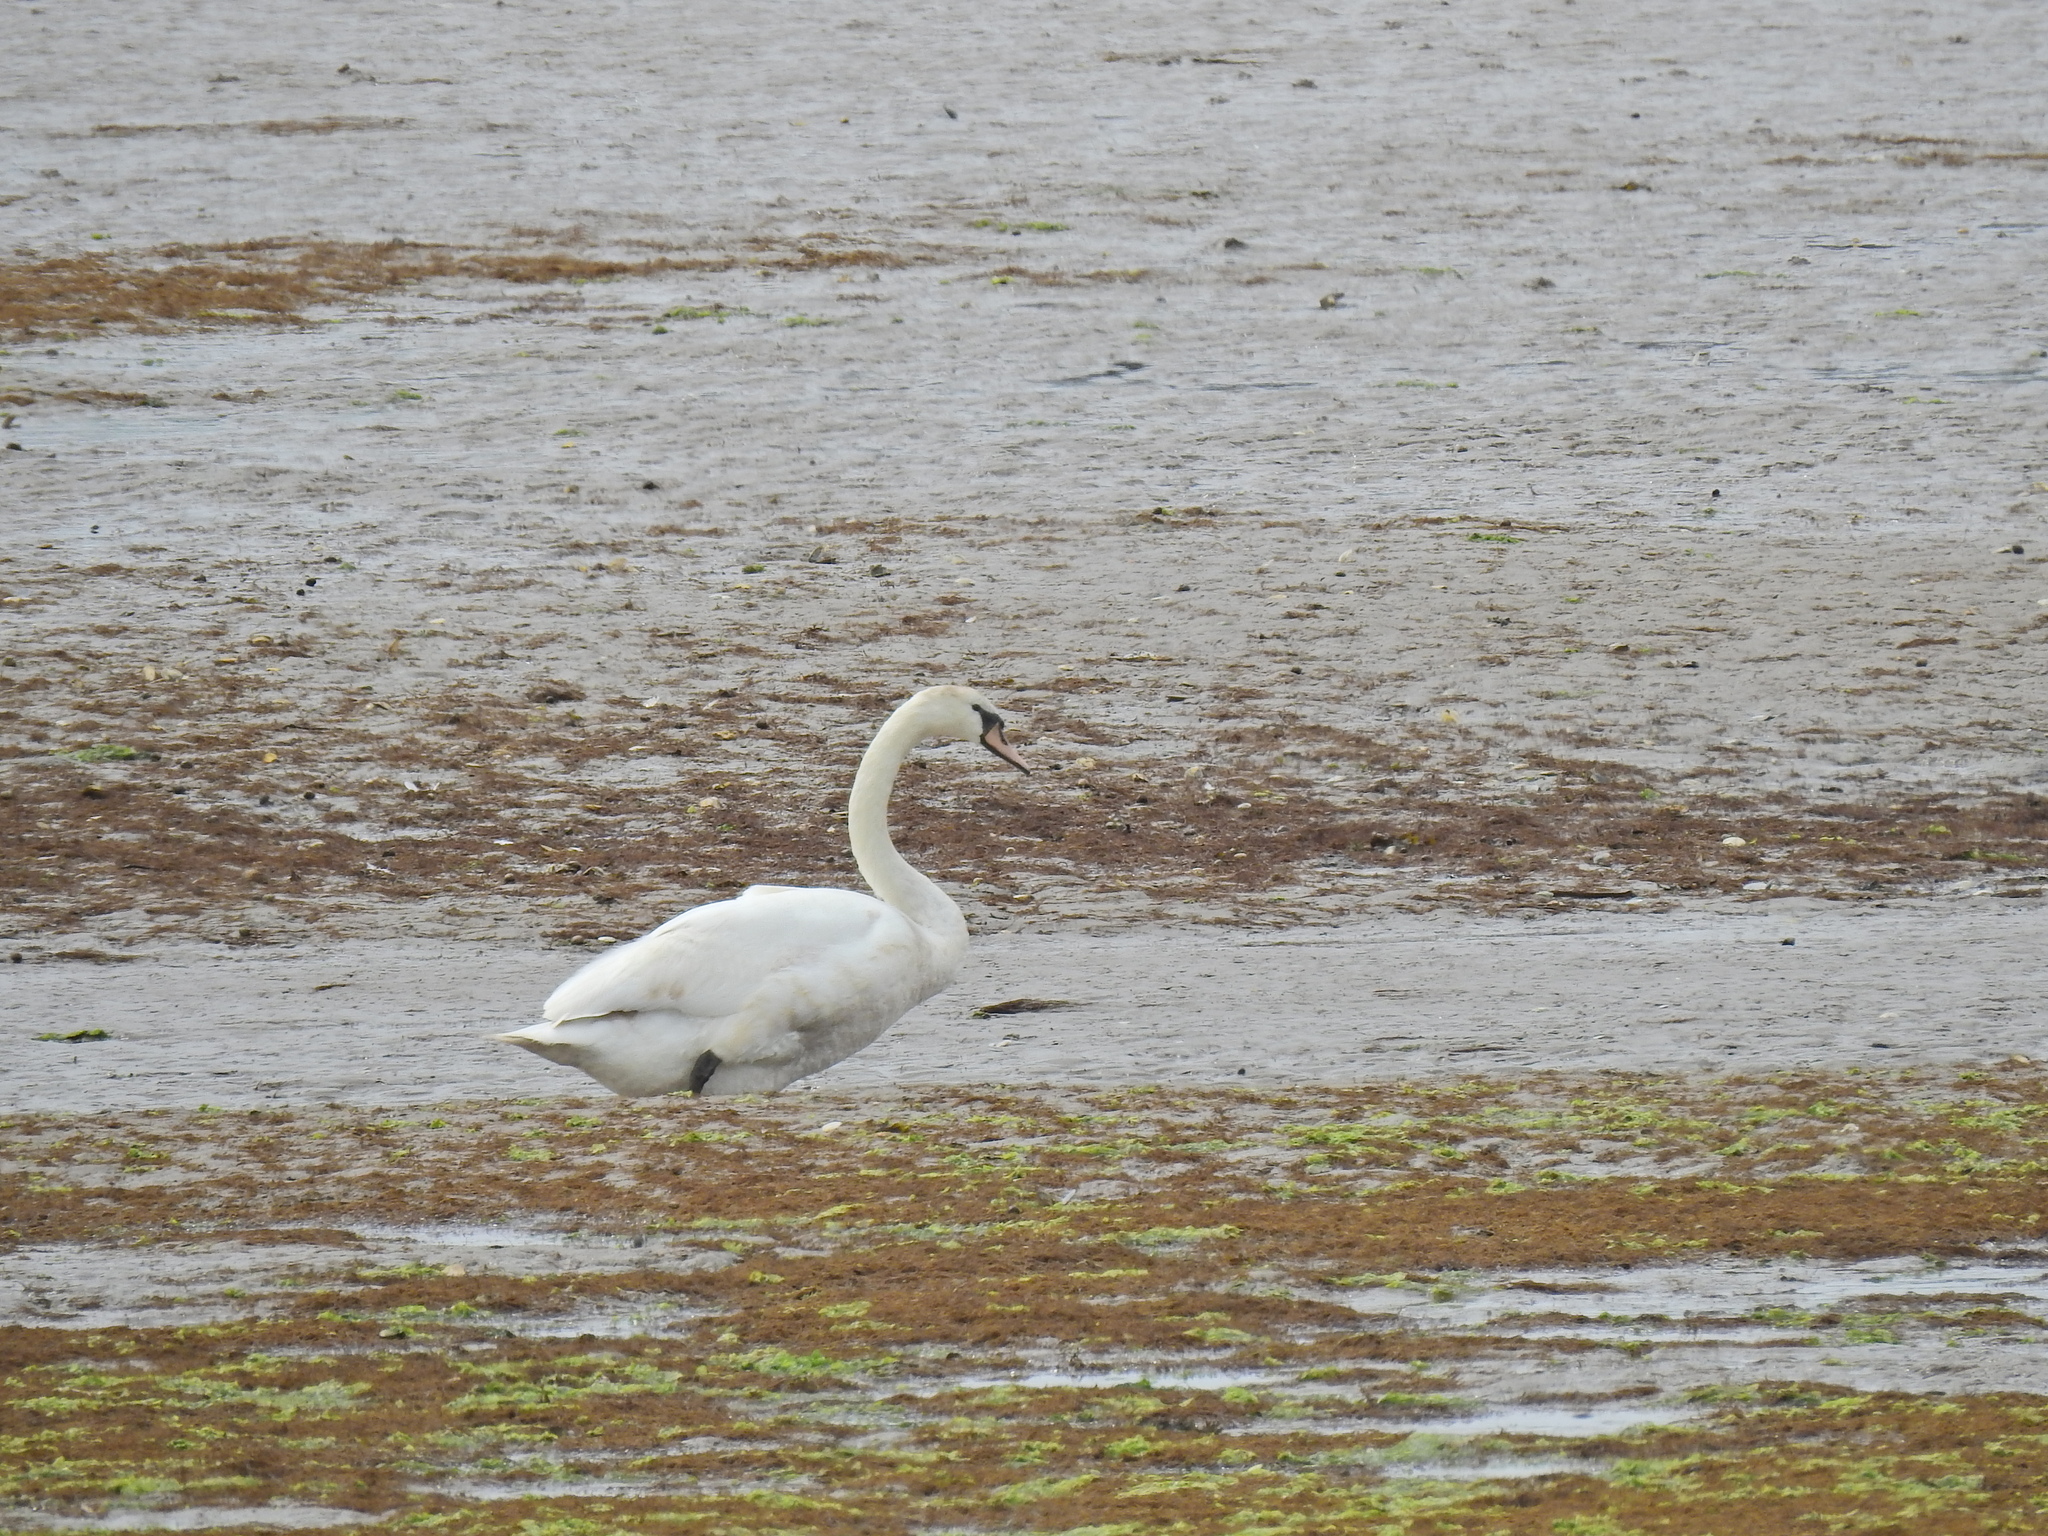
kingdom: Animalia
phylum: Chordata
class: Aves
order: Anseriformes
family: Anatidae
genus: Cygnus
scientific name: Cygnus olor
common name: Mute swan
